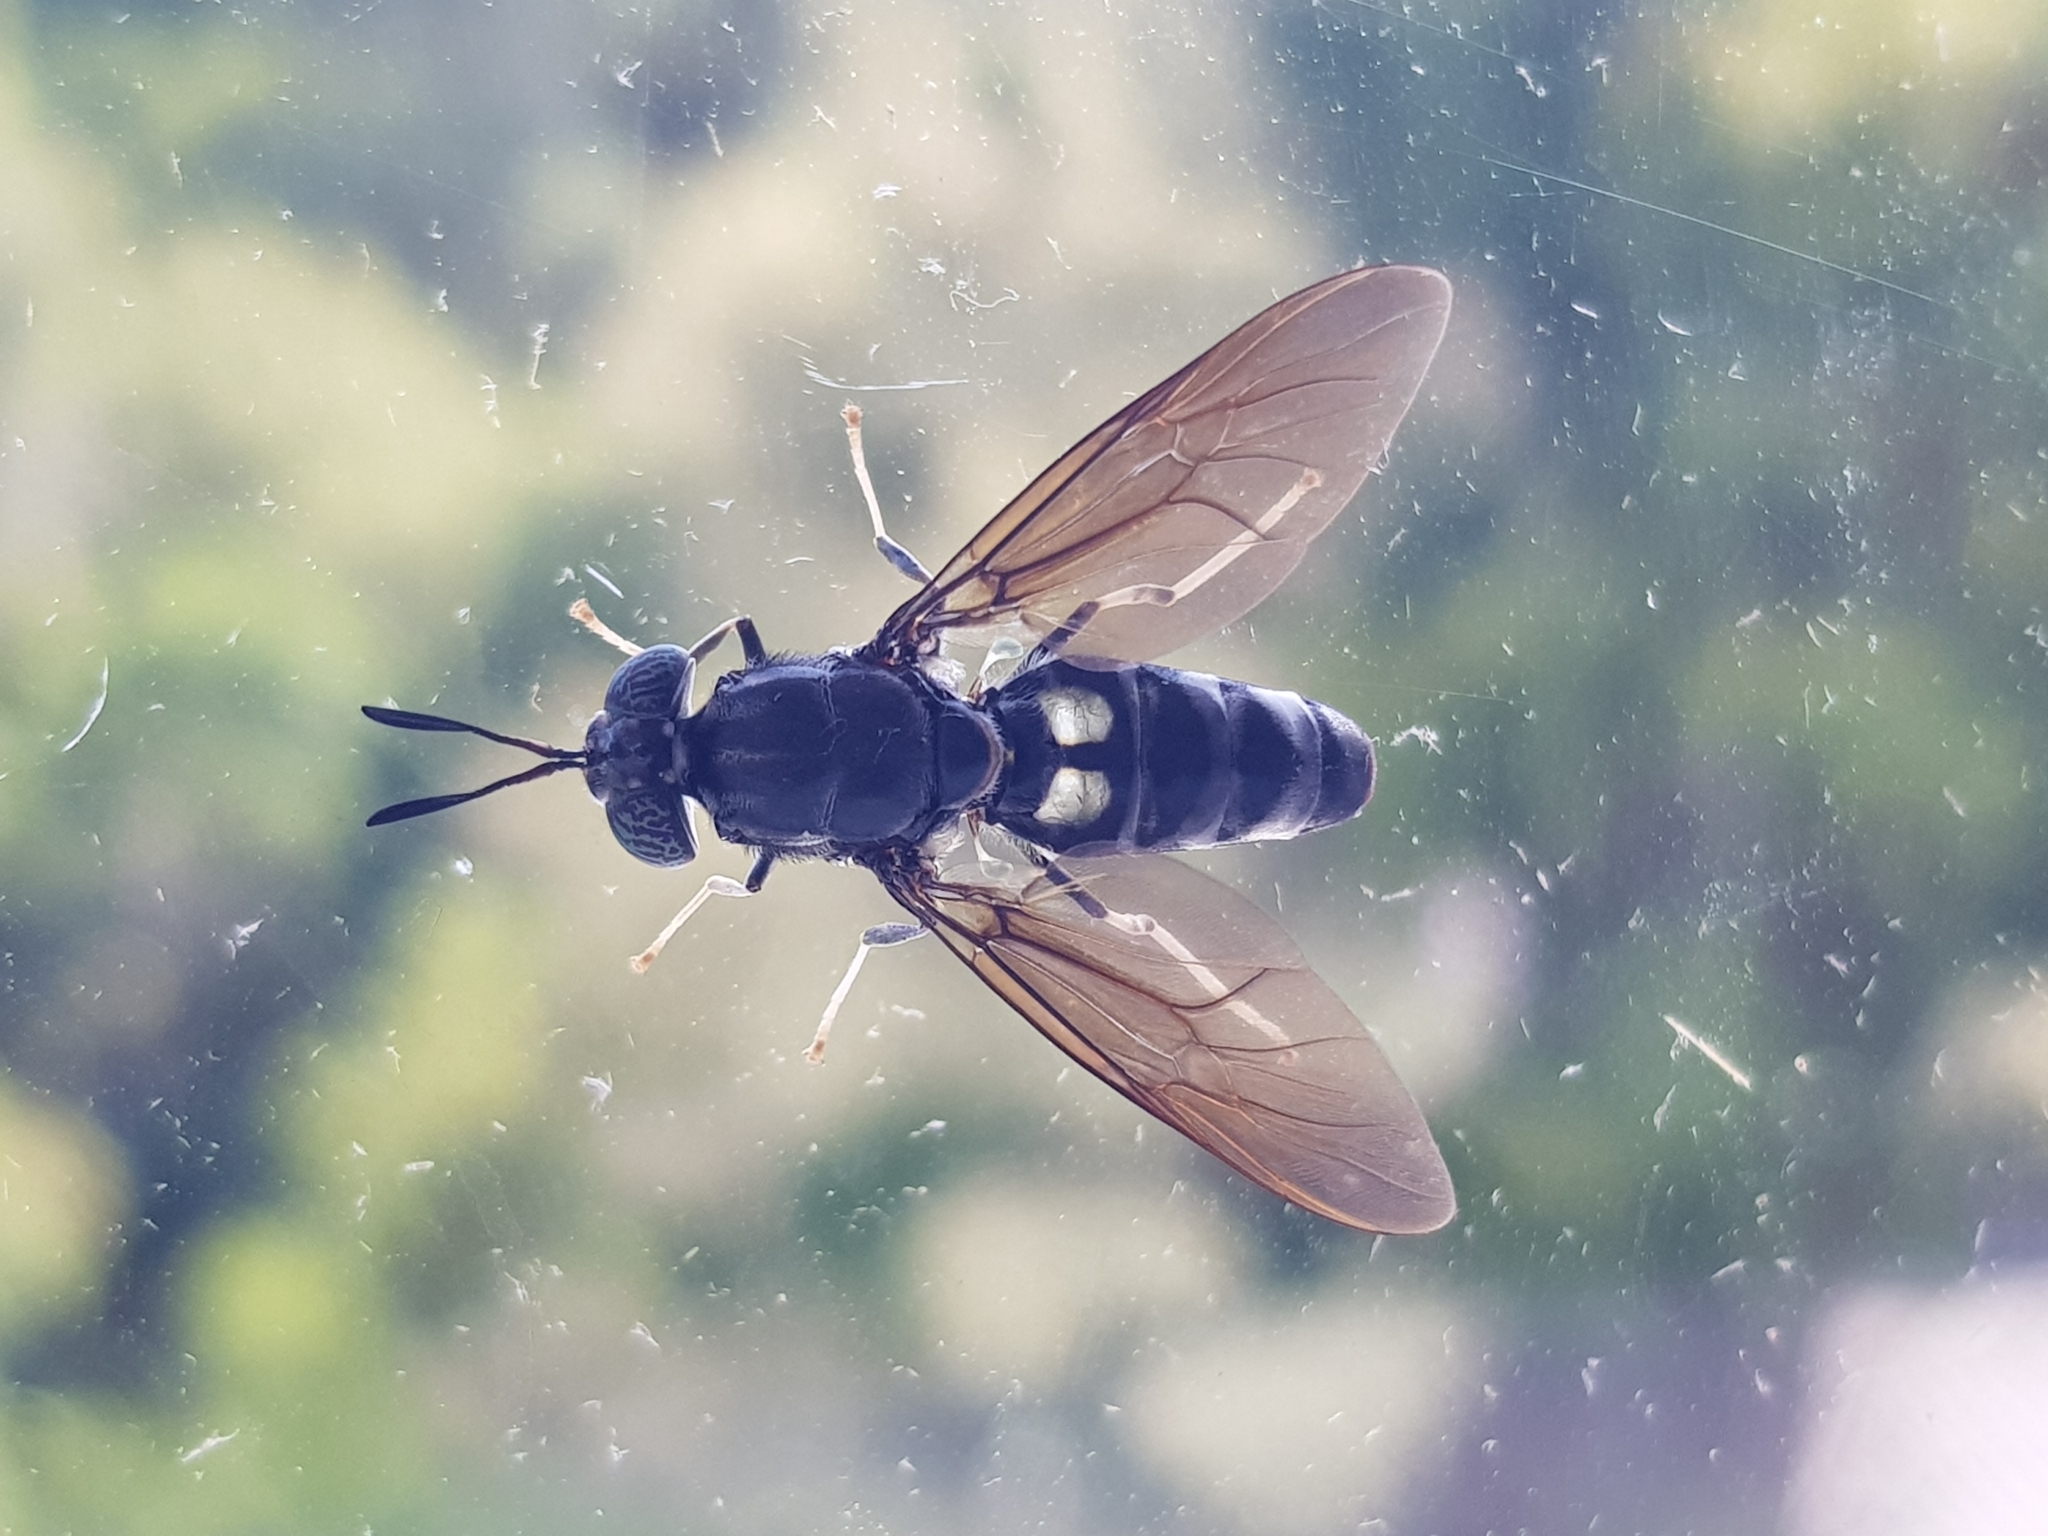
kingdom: Animalia
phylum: Arthropoda
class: Insecta
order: Diptera
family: Stratiomyidae
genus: Hermetia
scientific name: Hermetia illucens
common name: Black soldier fly
